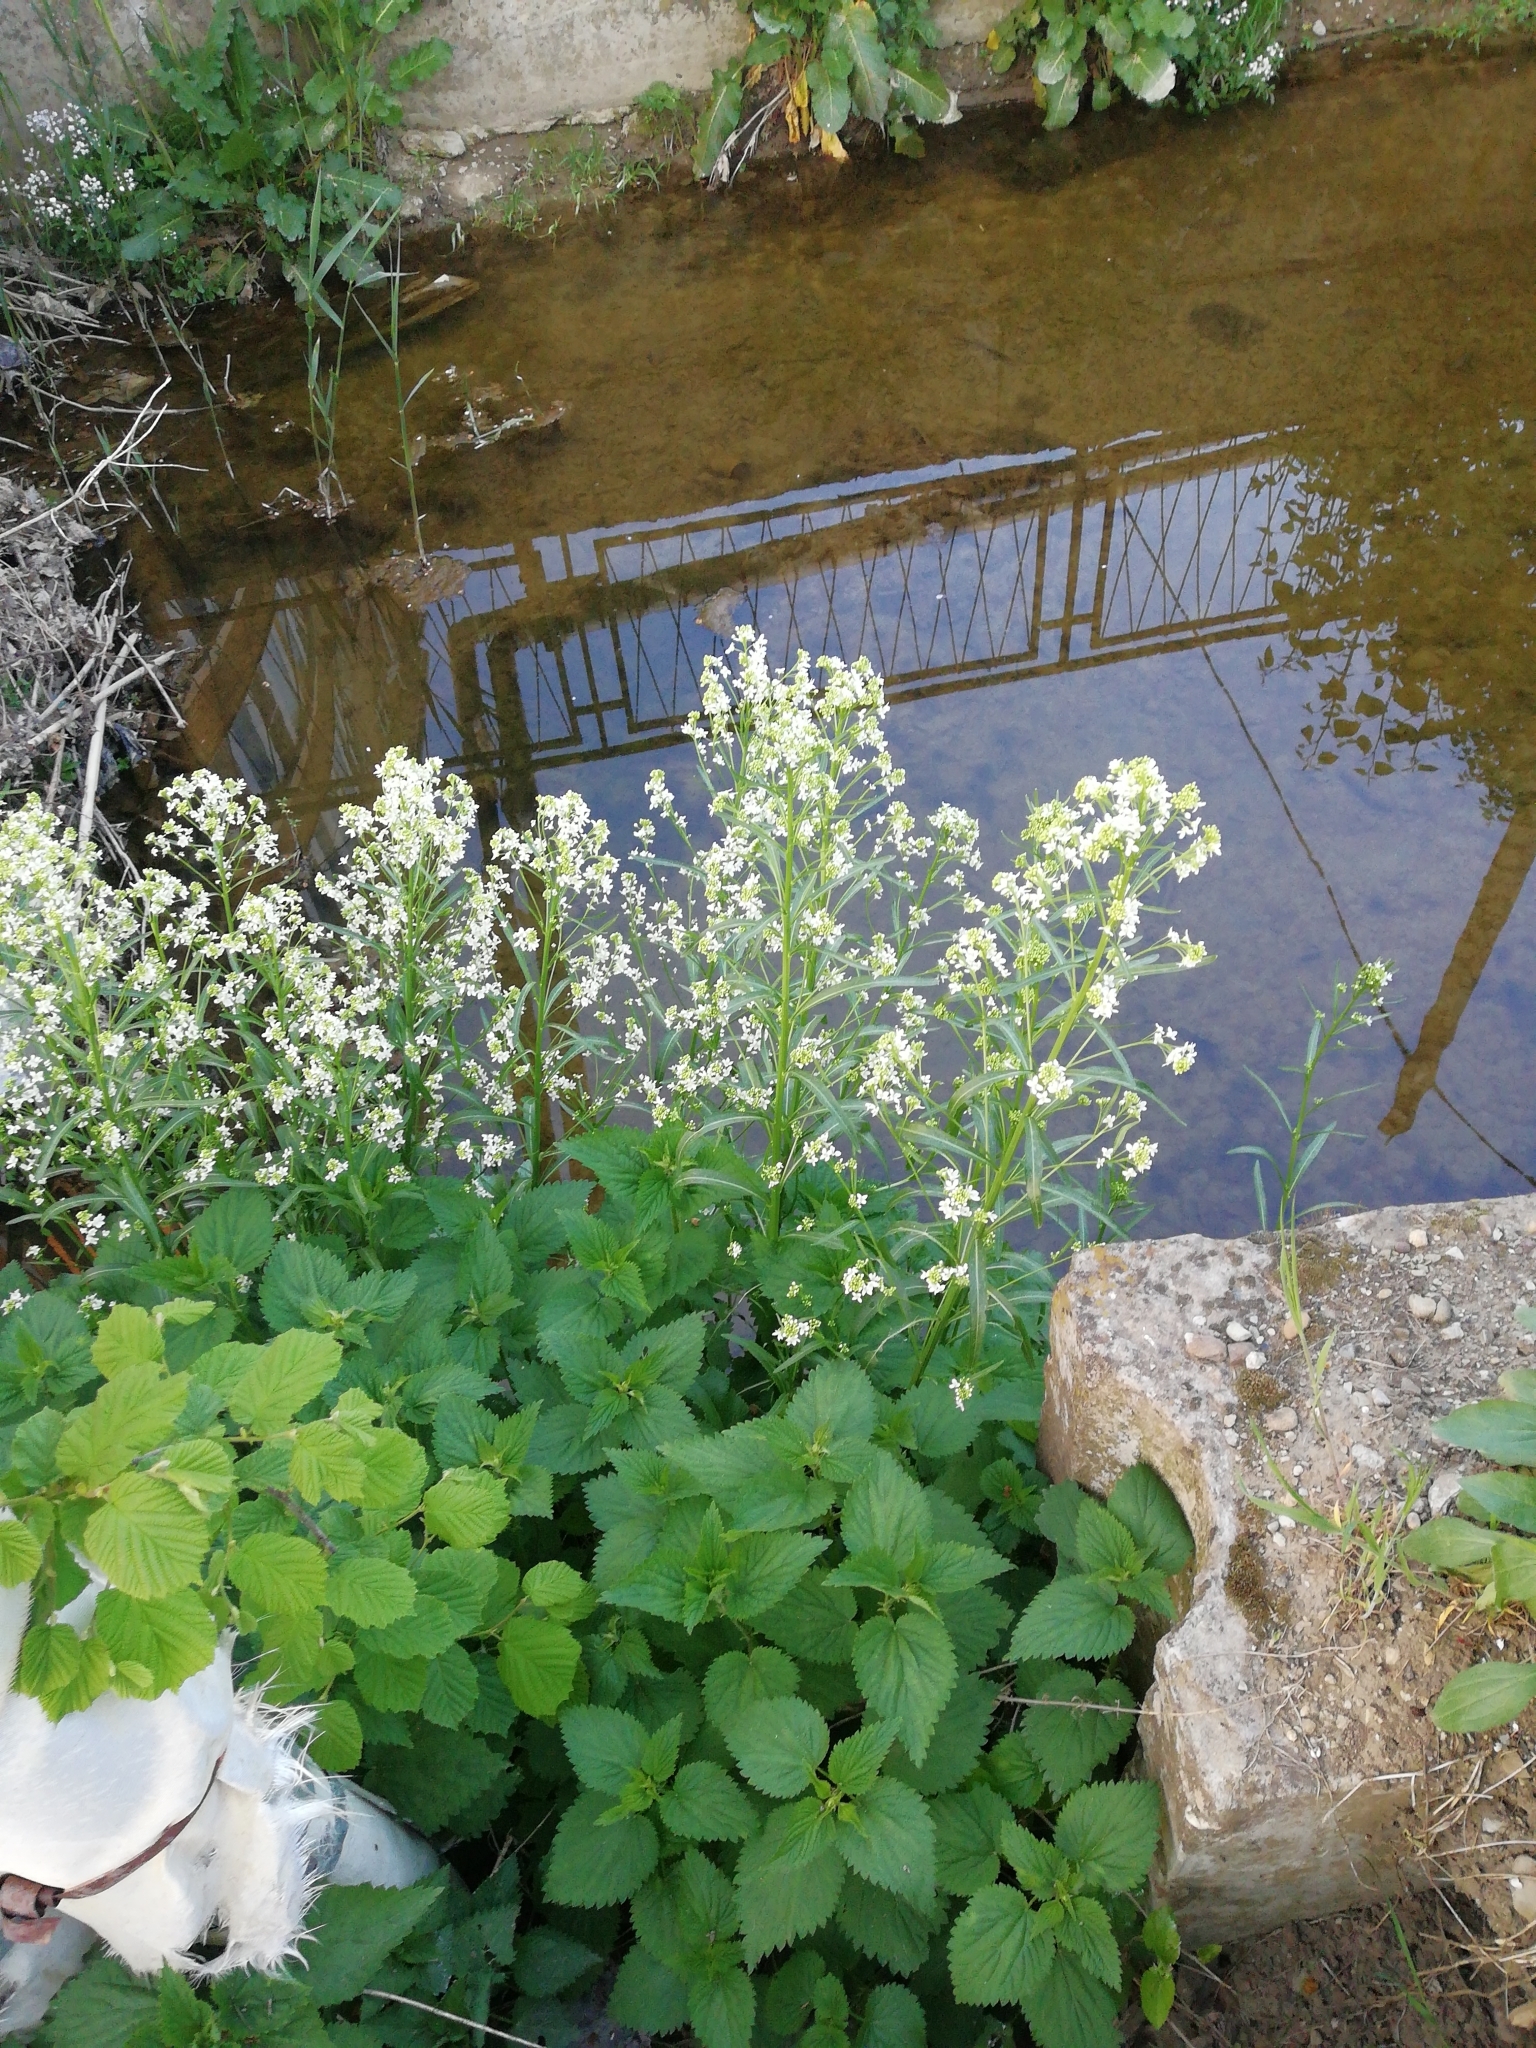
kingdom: Plantae
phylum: Tracheophyta
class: Magnoliopsida
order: Brassicales
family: Brassicaceae
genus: Armoracia
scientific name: Armoracia rusticana
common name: Horseradish
